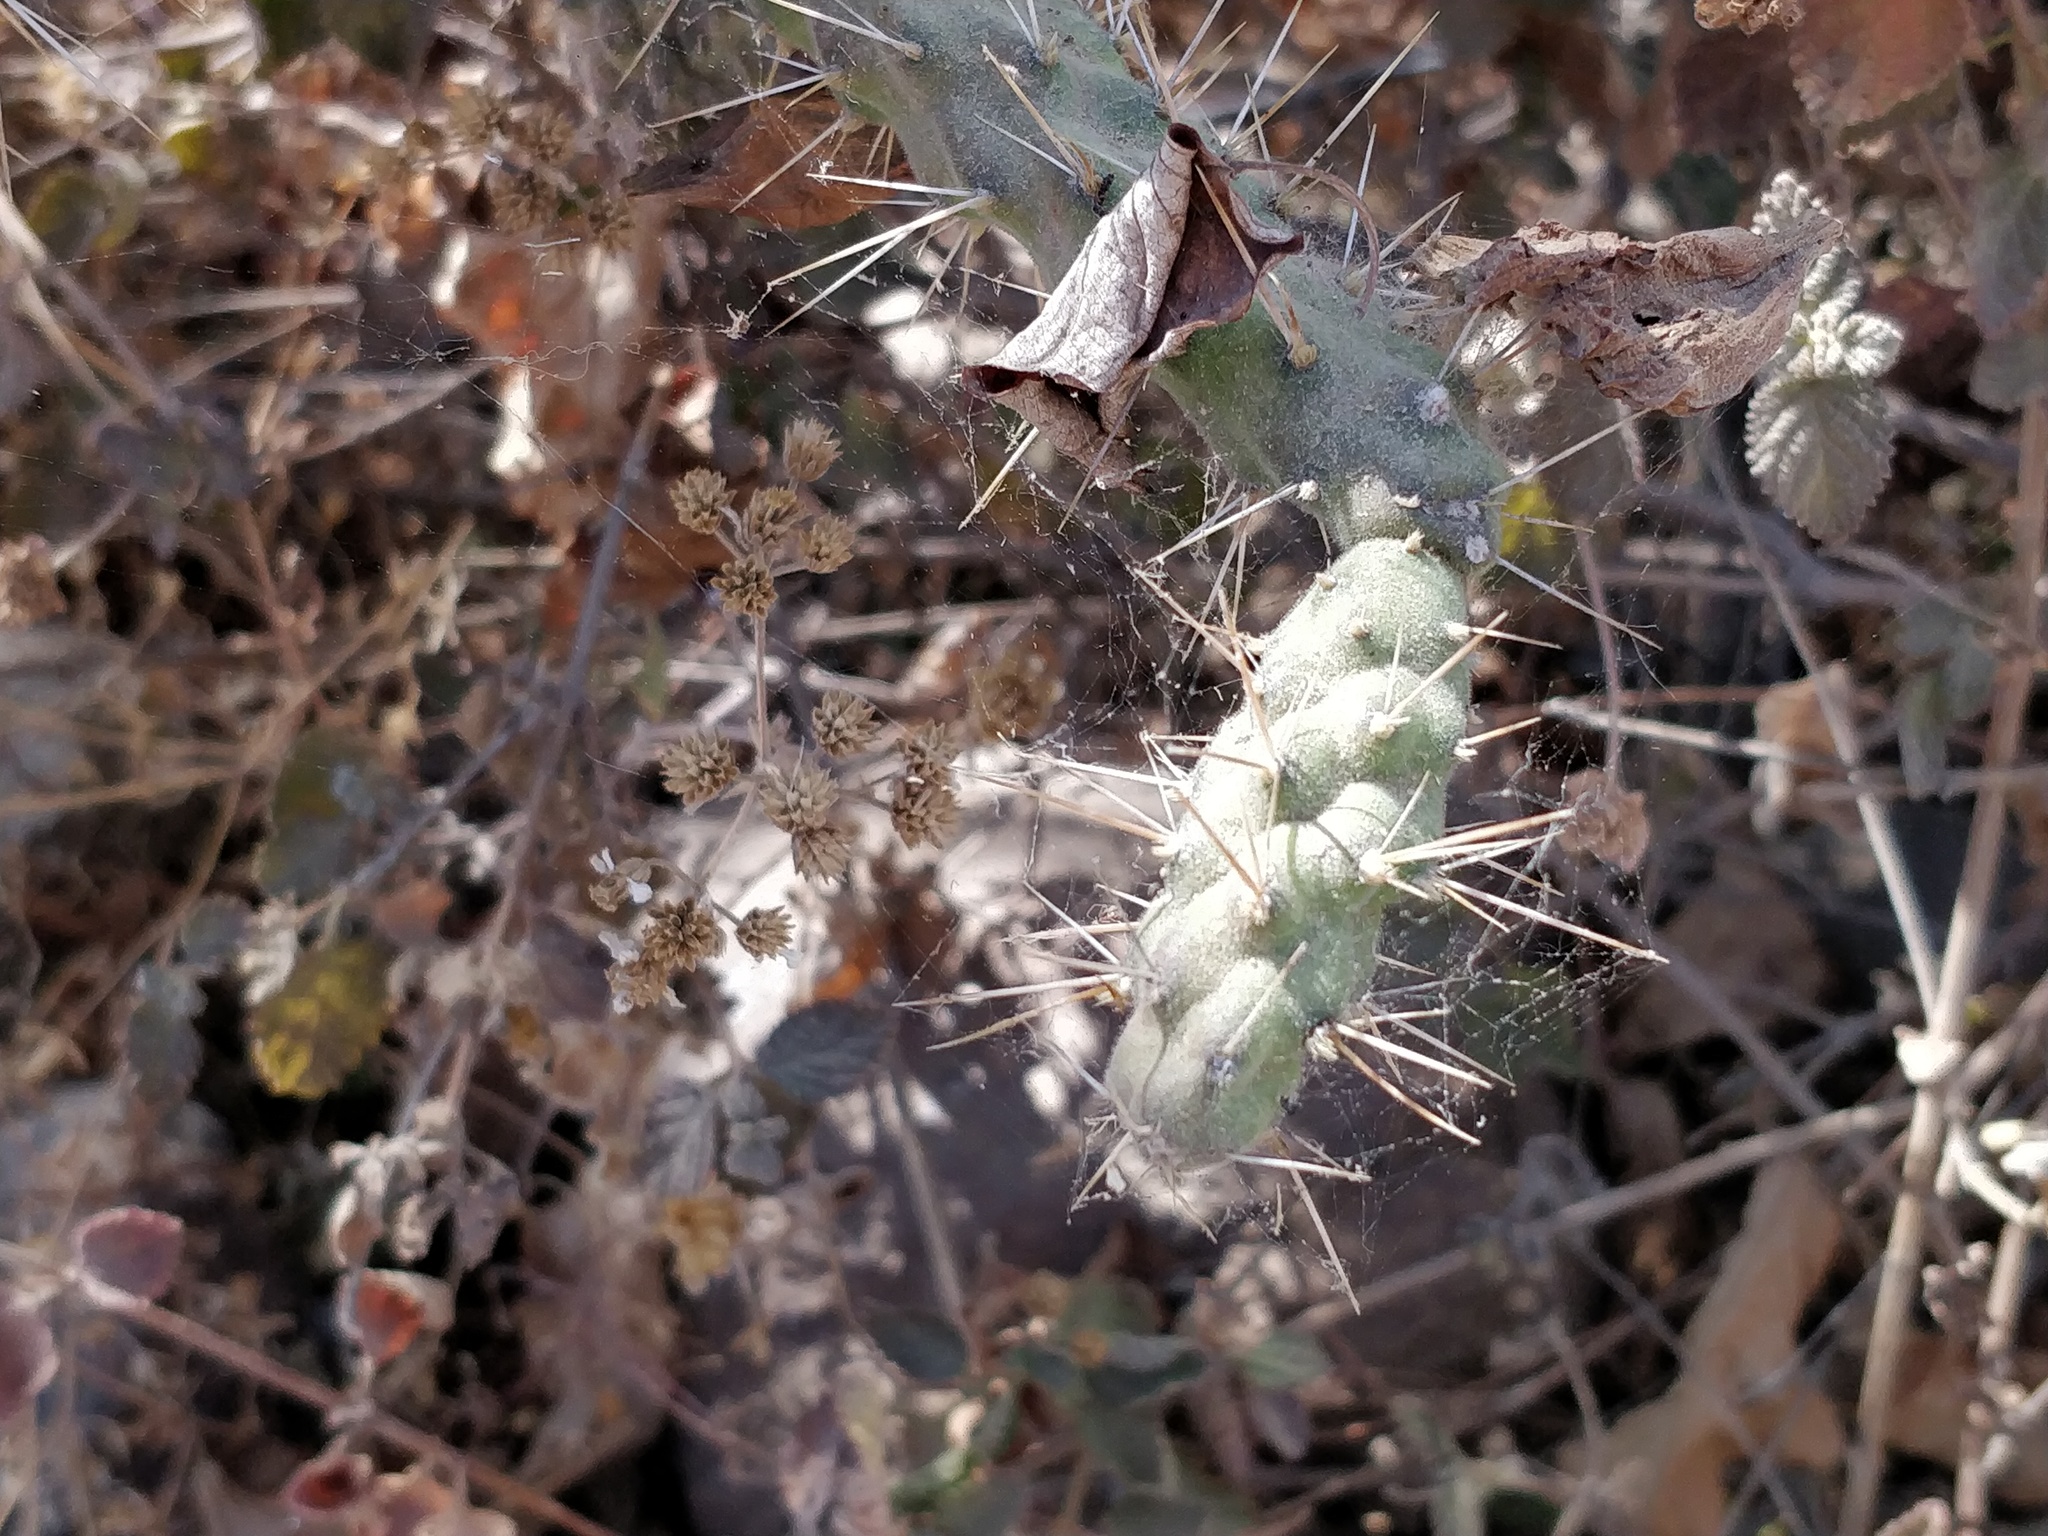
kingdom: Plantae
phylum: Tracheophyta
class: Magnoliopsida
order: Caryophyllales
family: Cactaceae
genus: Opuntia
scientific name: Opuntia
